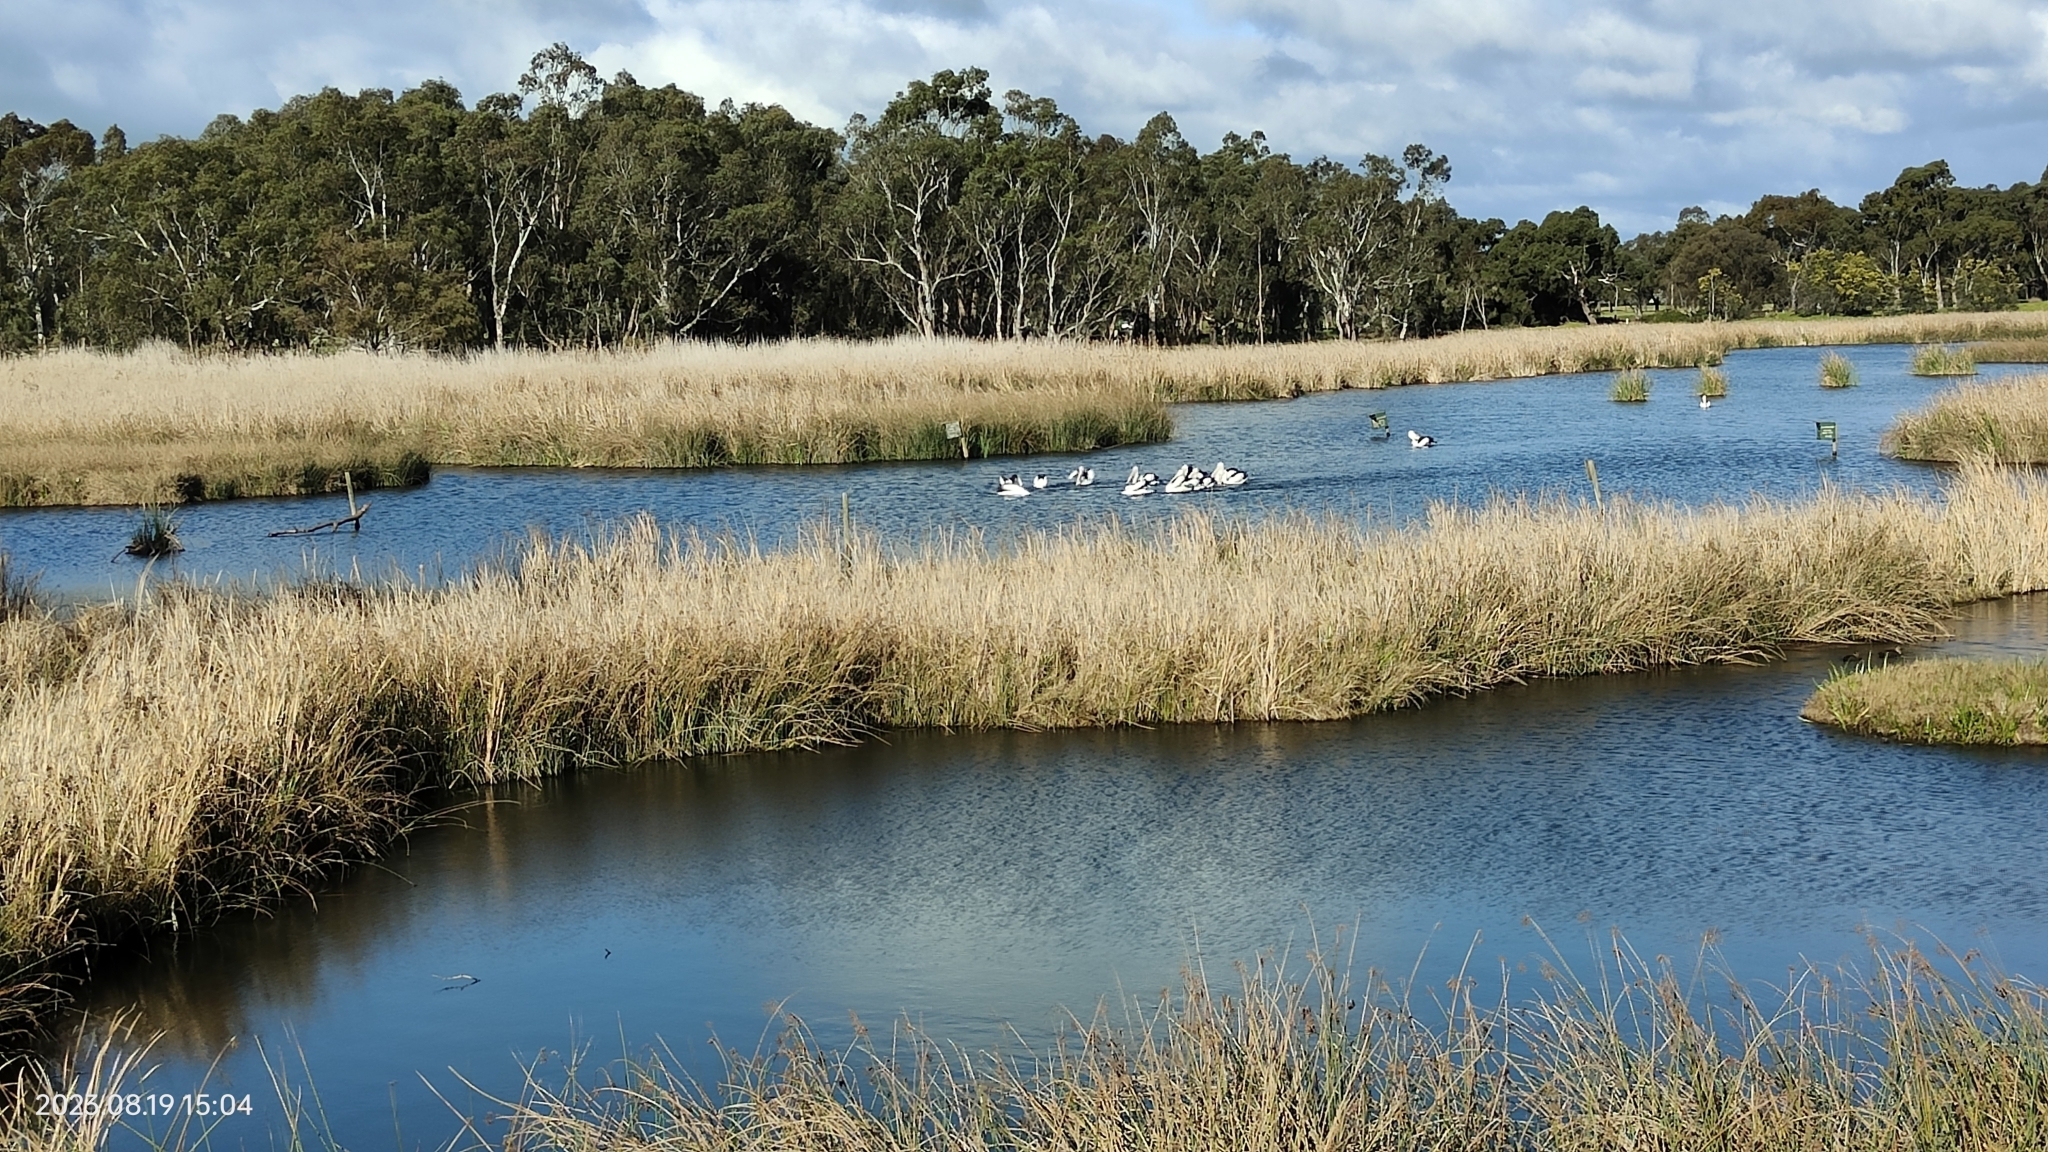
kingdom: Animalia
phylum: Chordata
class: Aves
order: Pelecaniformes
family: Pelecanidae
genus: Pelecanus
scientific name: Pelecanus conspicillatus
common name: Australian pelican
